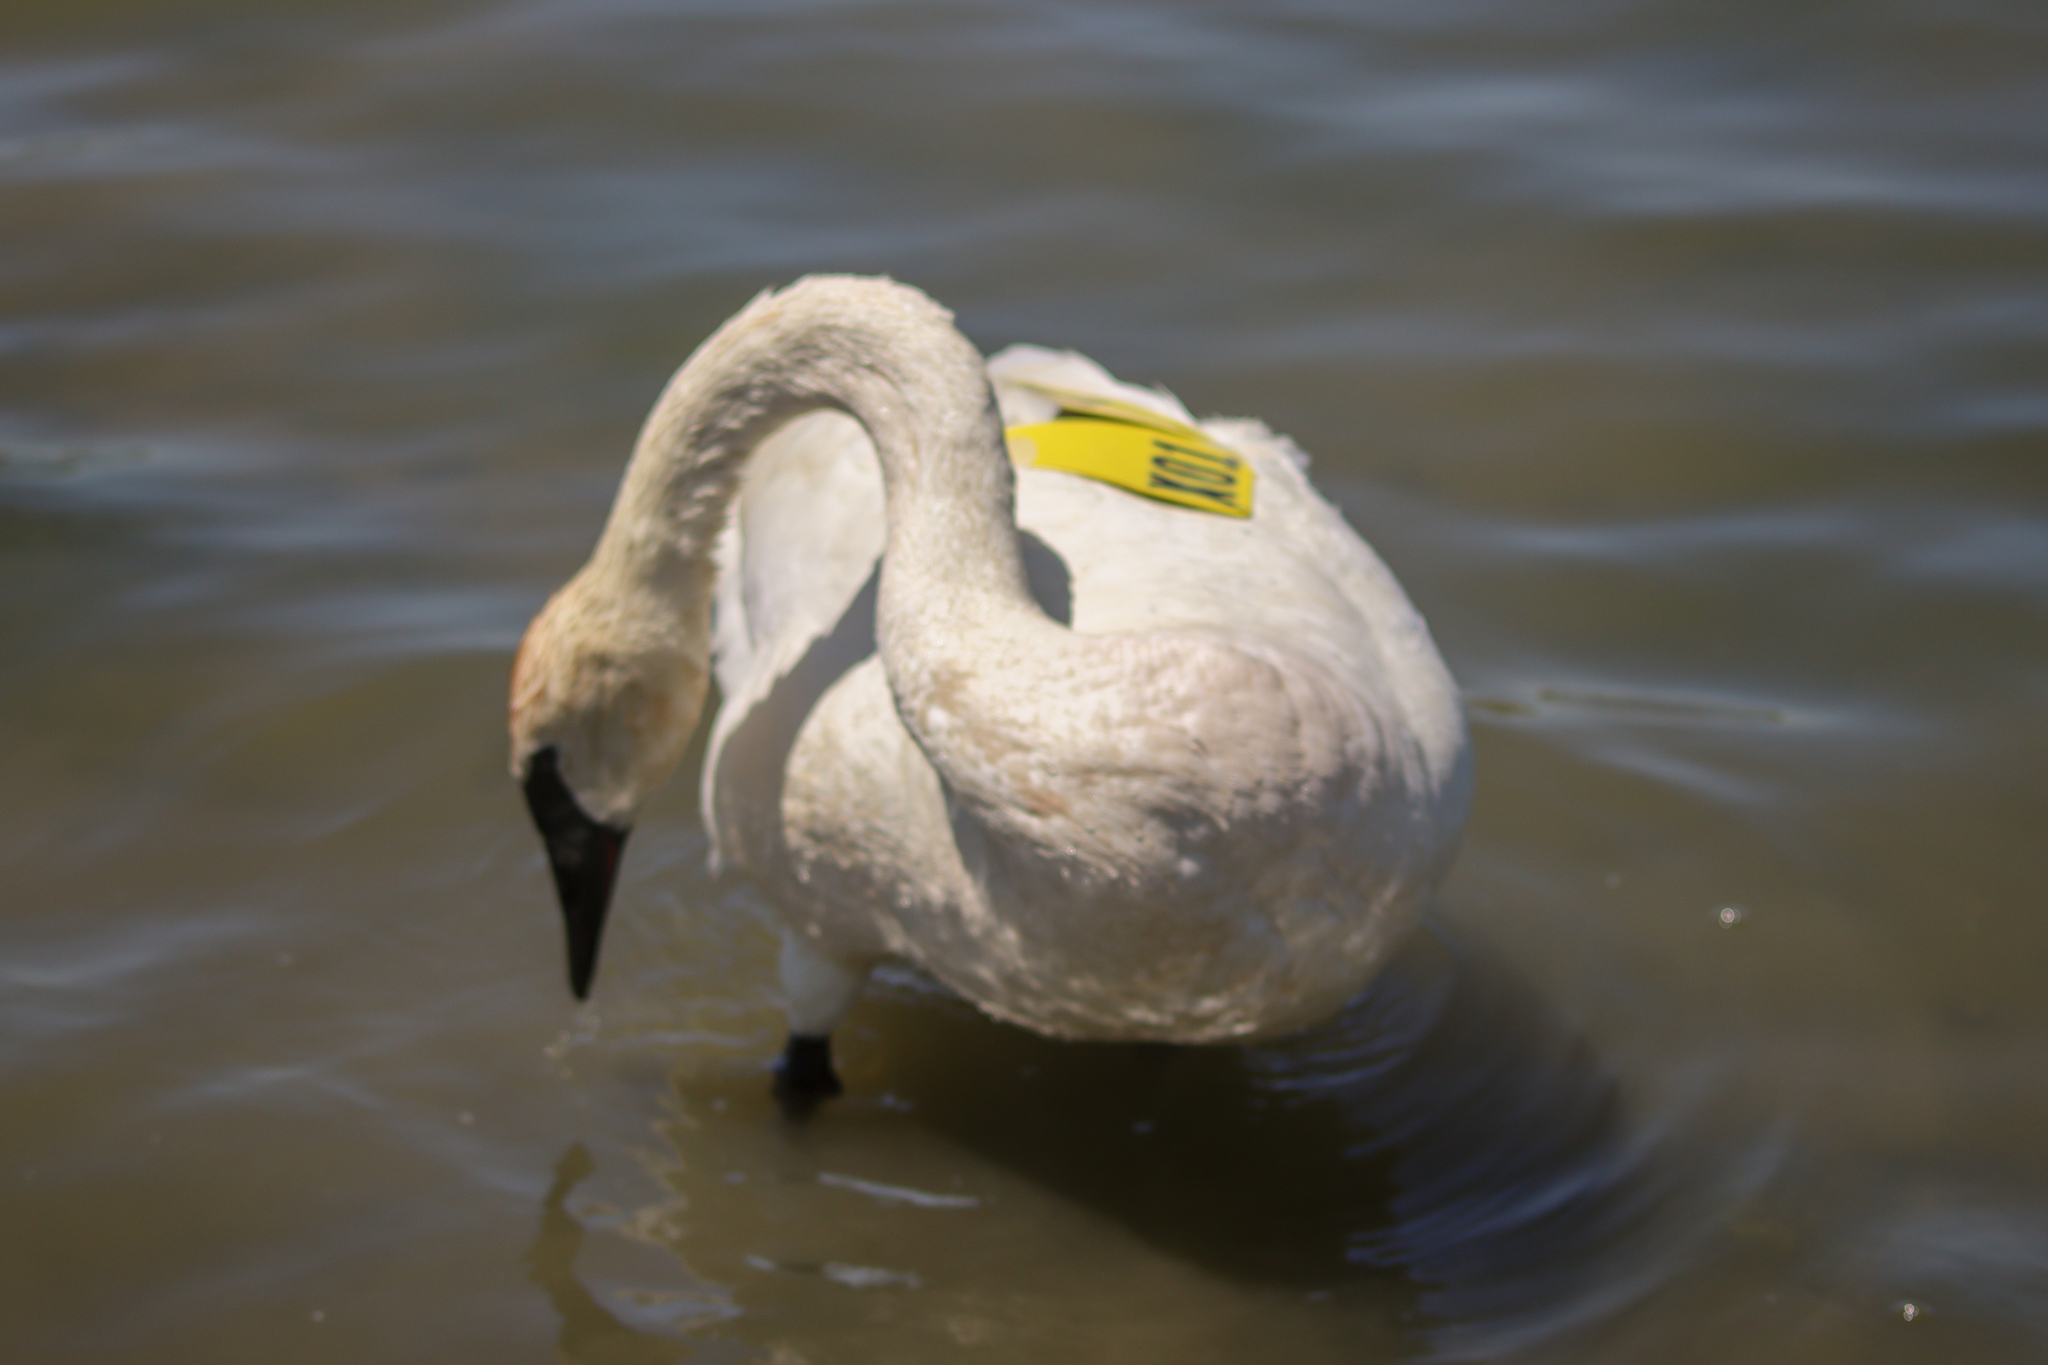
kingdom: Animalia
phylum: Chordata
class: Aves
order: Anseriformes
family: Anatidae
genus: Cygnus
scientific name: Cygnus buccinator
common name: Trumpeter swan
